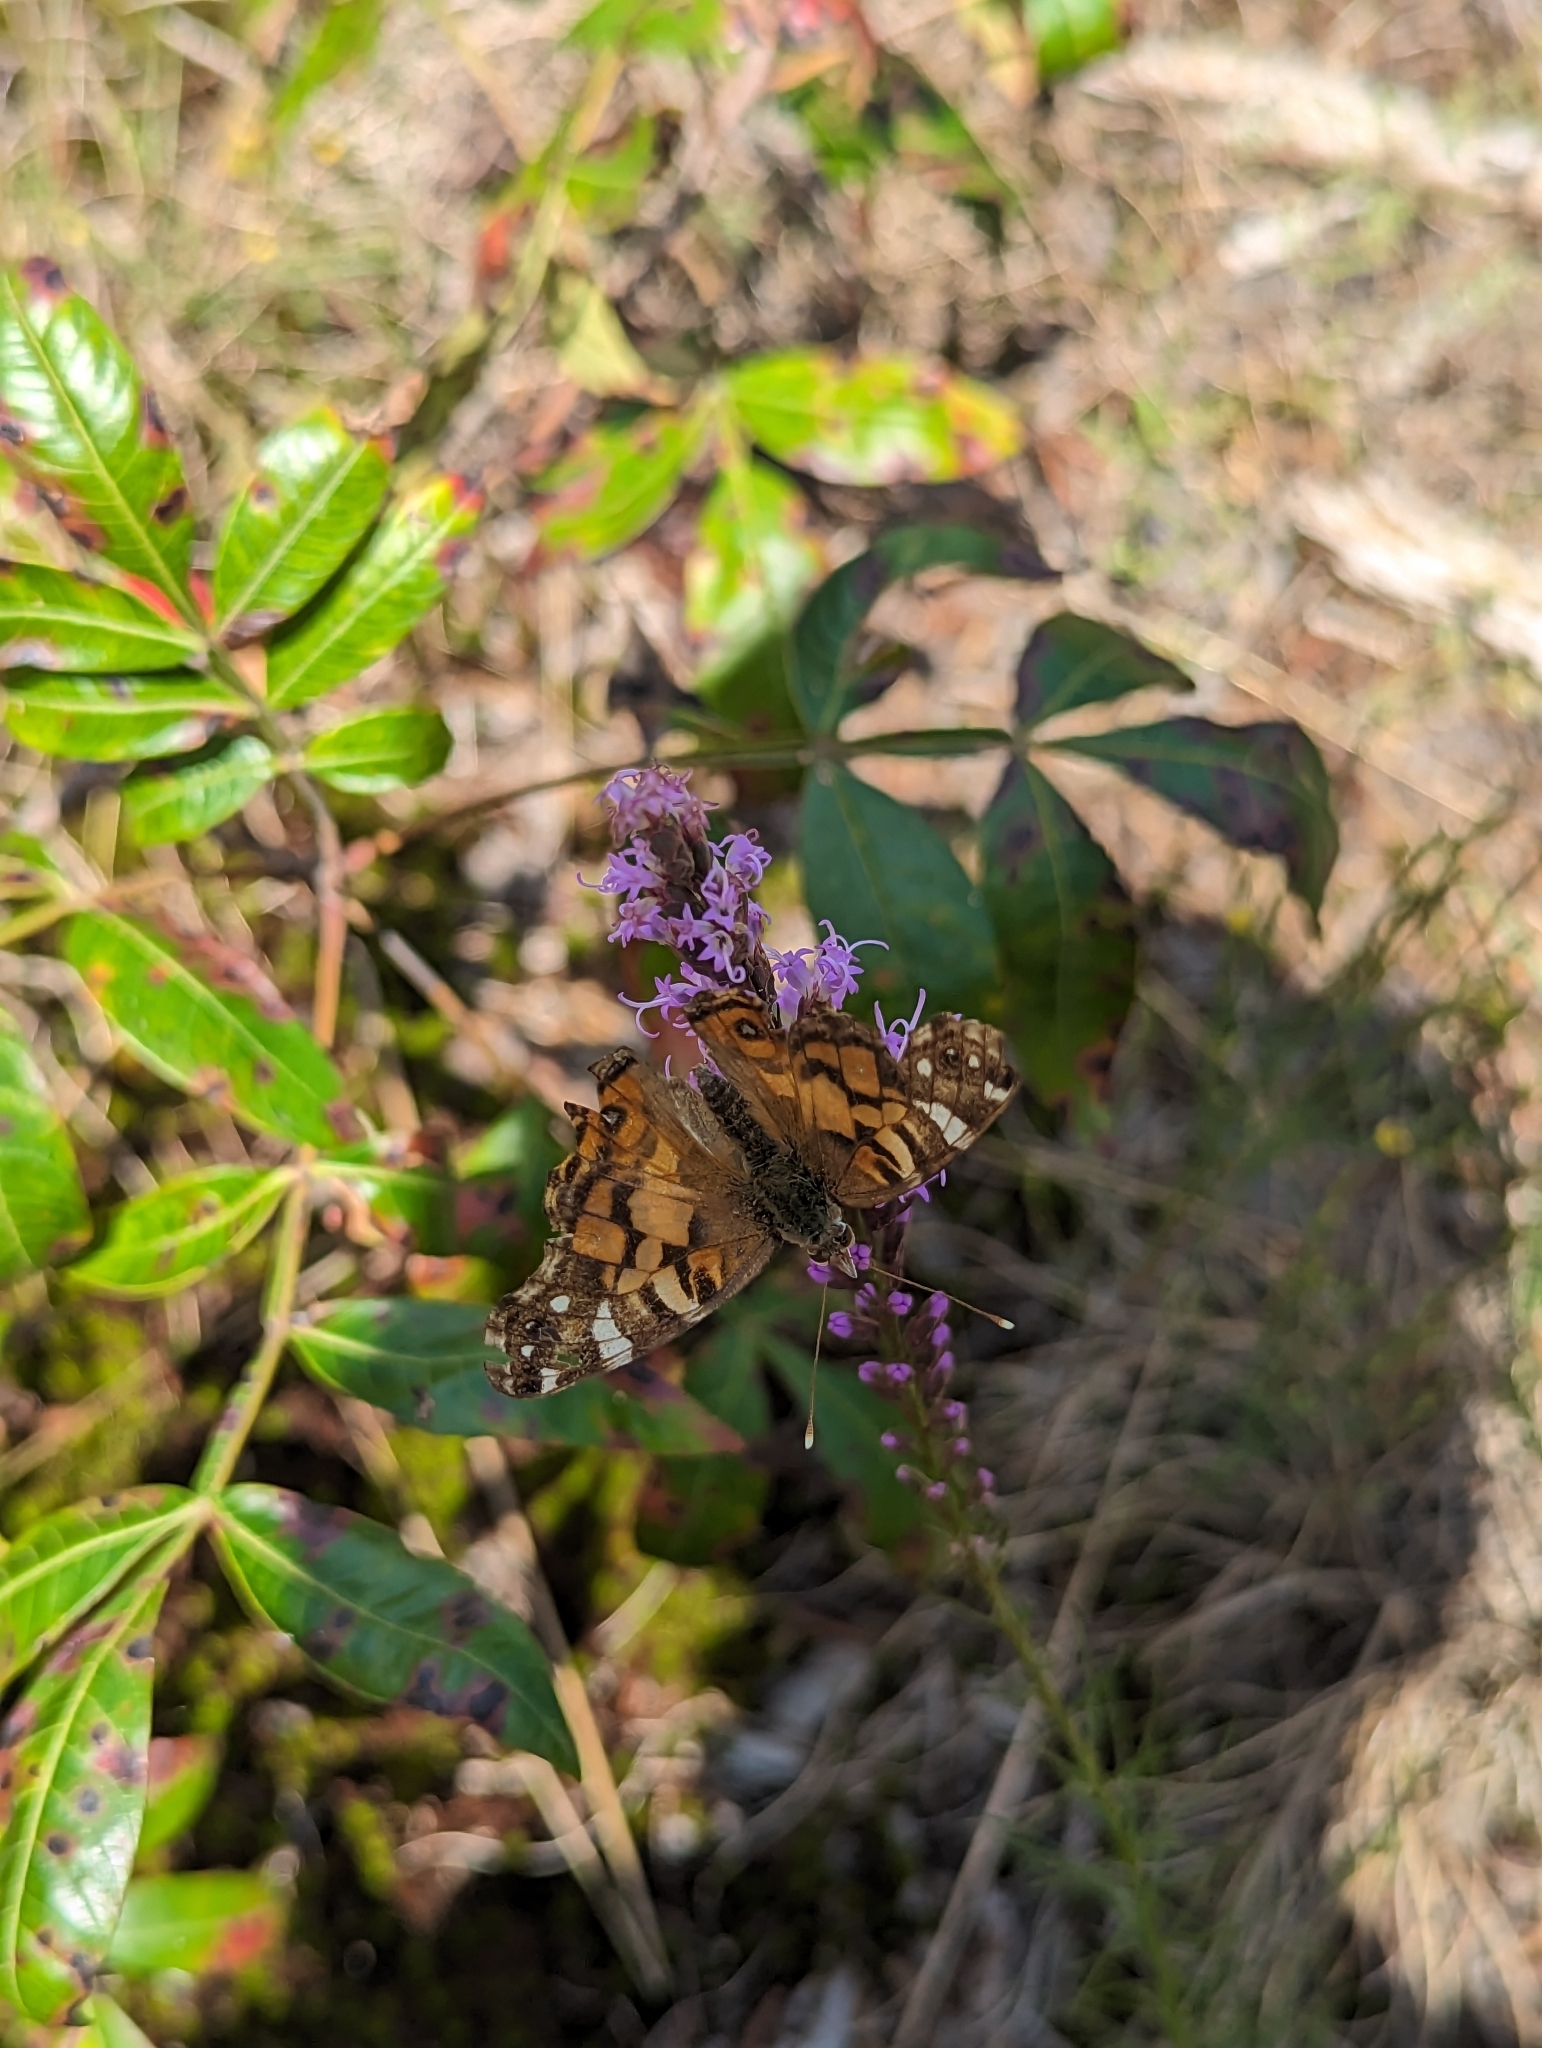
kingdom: Animalia
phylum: Arthropoda
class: Insecta
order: Lepidoptera
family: Nymphalidae
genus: Vanessa
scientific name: Vanessa virginiensis
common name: American lady
